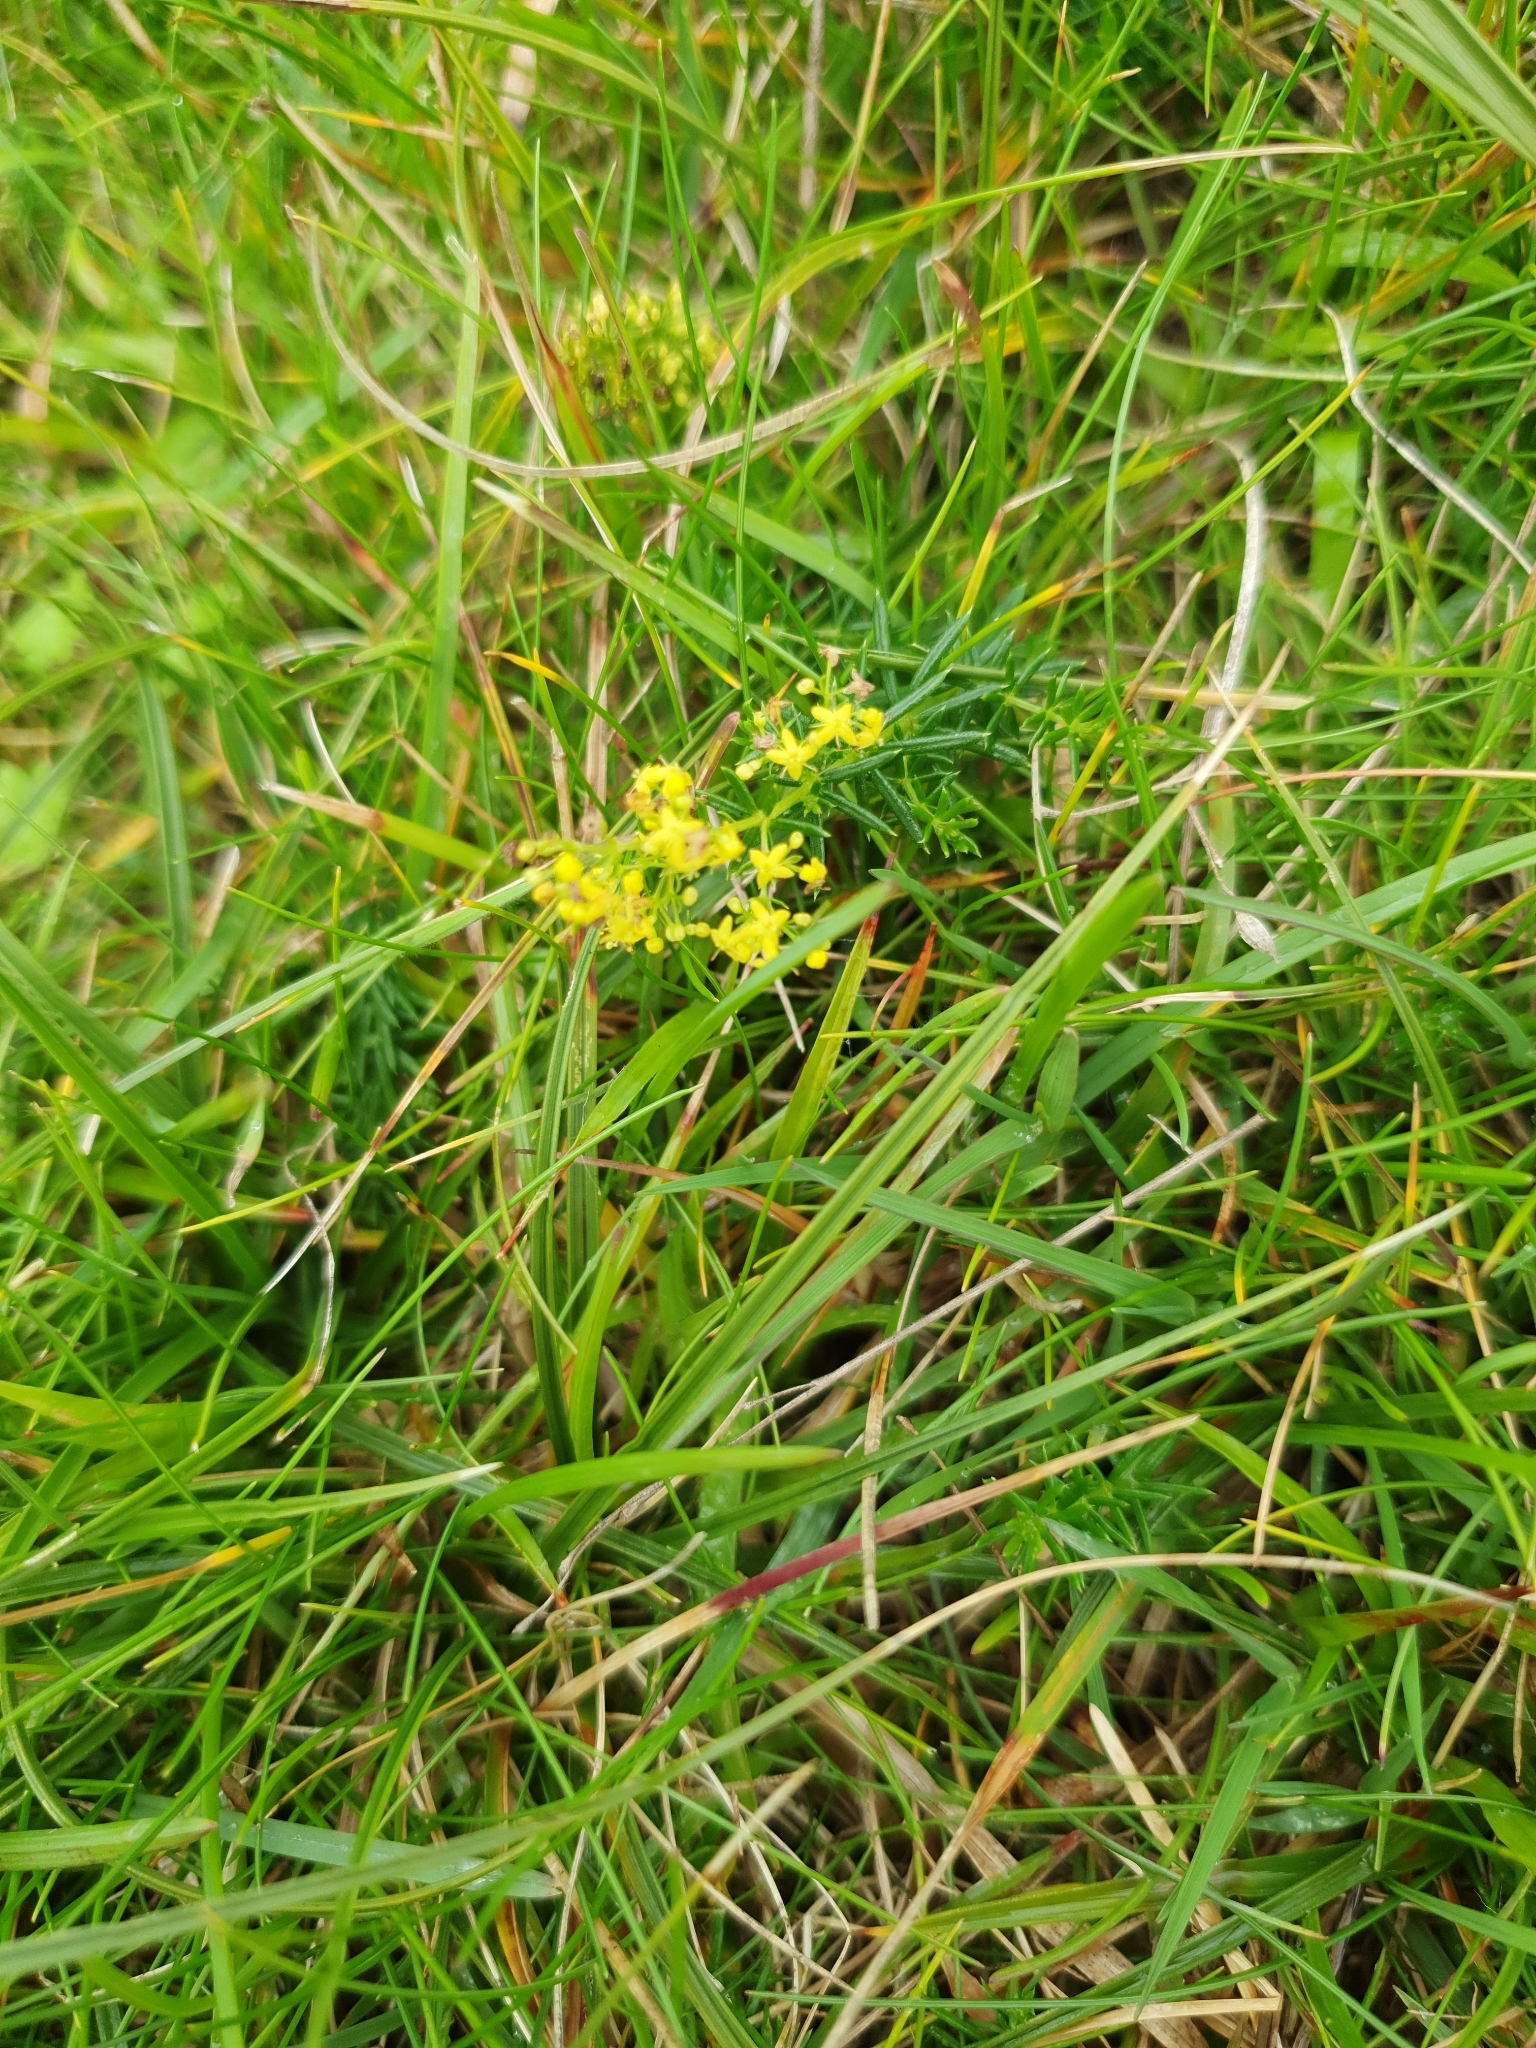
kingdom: Plantae
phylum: Tracheophyta
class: Magnoliopsida
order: Gentianales
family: Rubiaceae
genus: Galium
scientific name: Galium verum
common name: Lady's bedstraw
